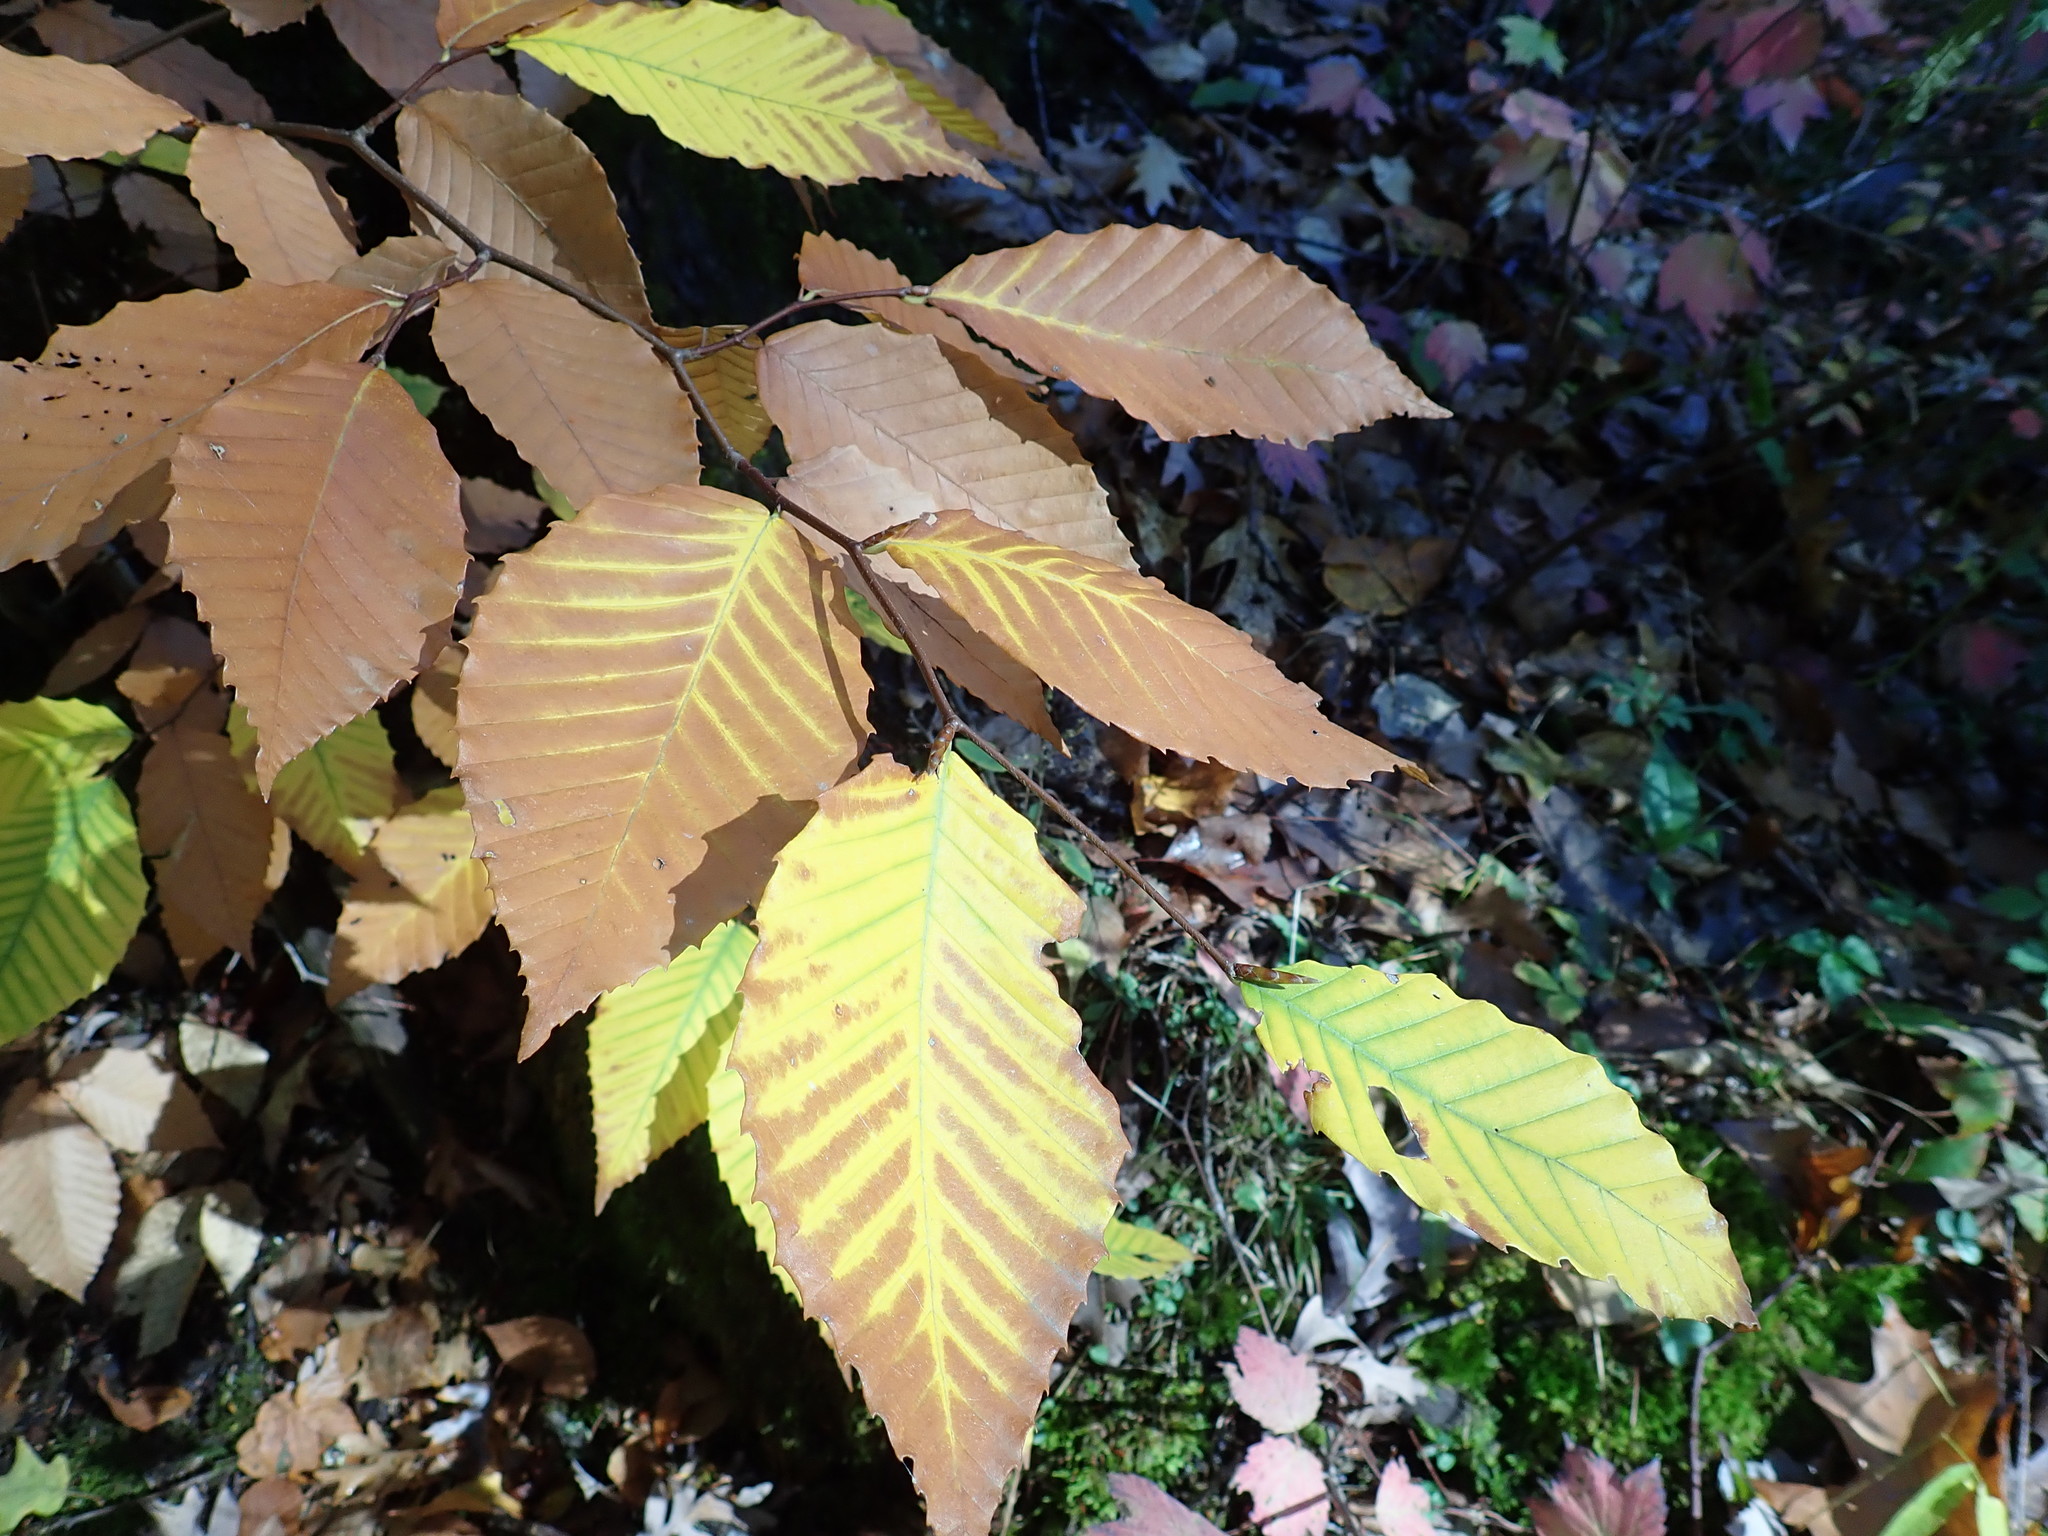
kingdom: Plantae
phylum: Tracheophyta
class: Magnoliopsida
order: Fagales
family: Fagaceae
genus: Fagus
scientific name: Fagus grandifolia
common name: American beech
